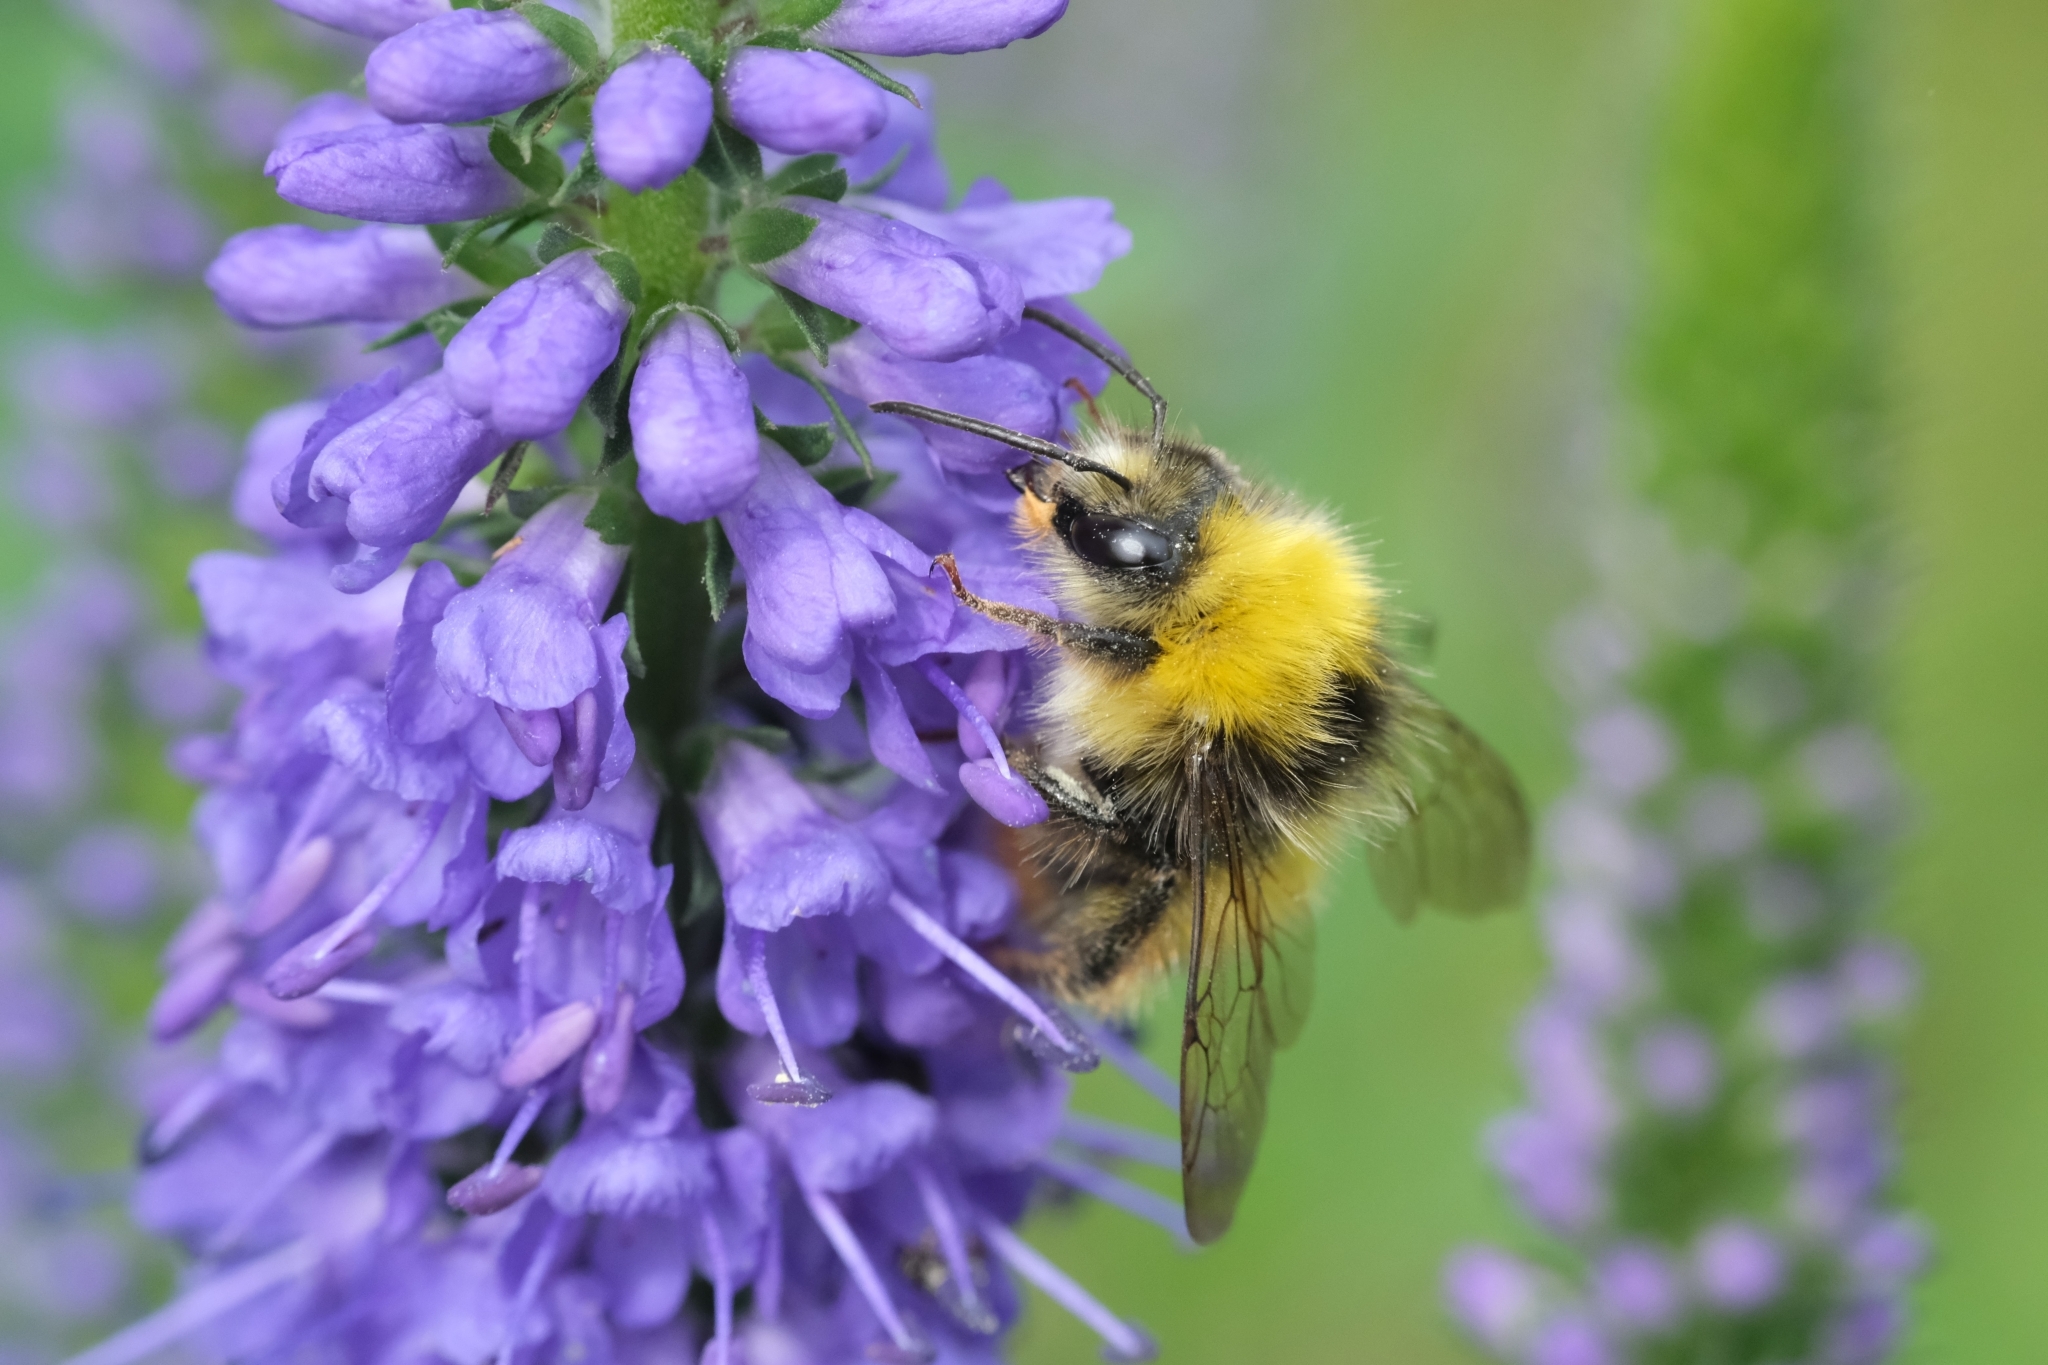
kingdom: Animalia
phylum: Arthropoda
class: Insecta
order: Hymenoptera
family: Apidae
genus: Bombus
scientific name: Bombus pratorum
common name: Early humble-bee
